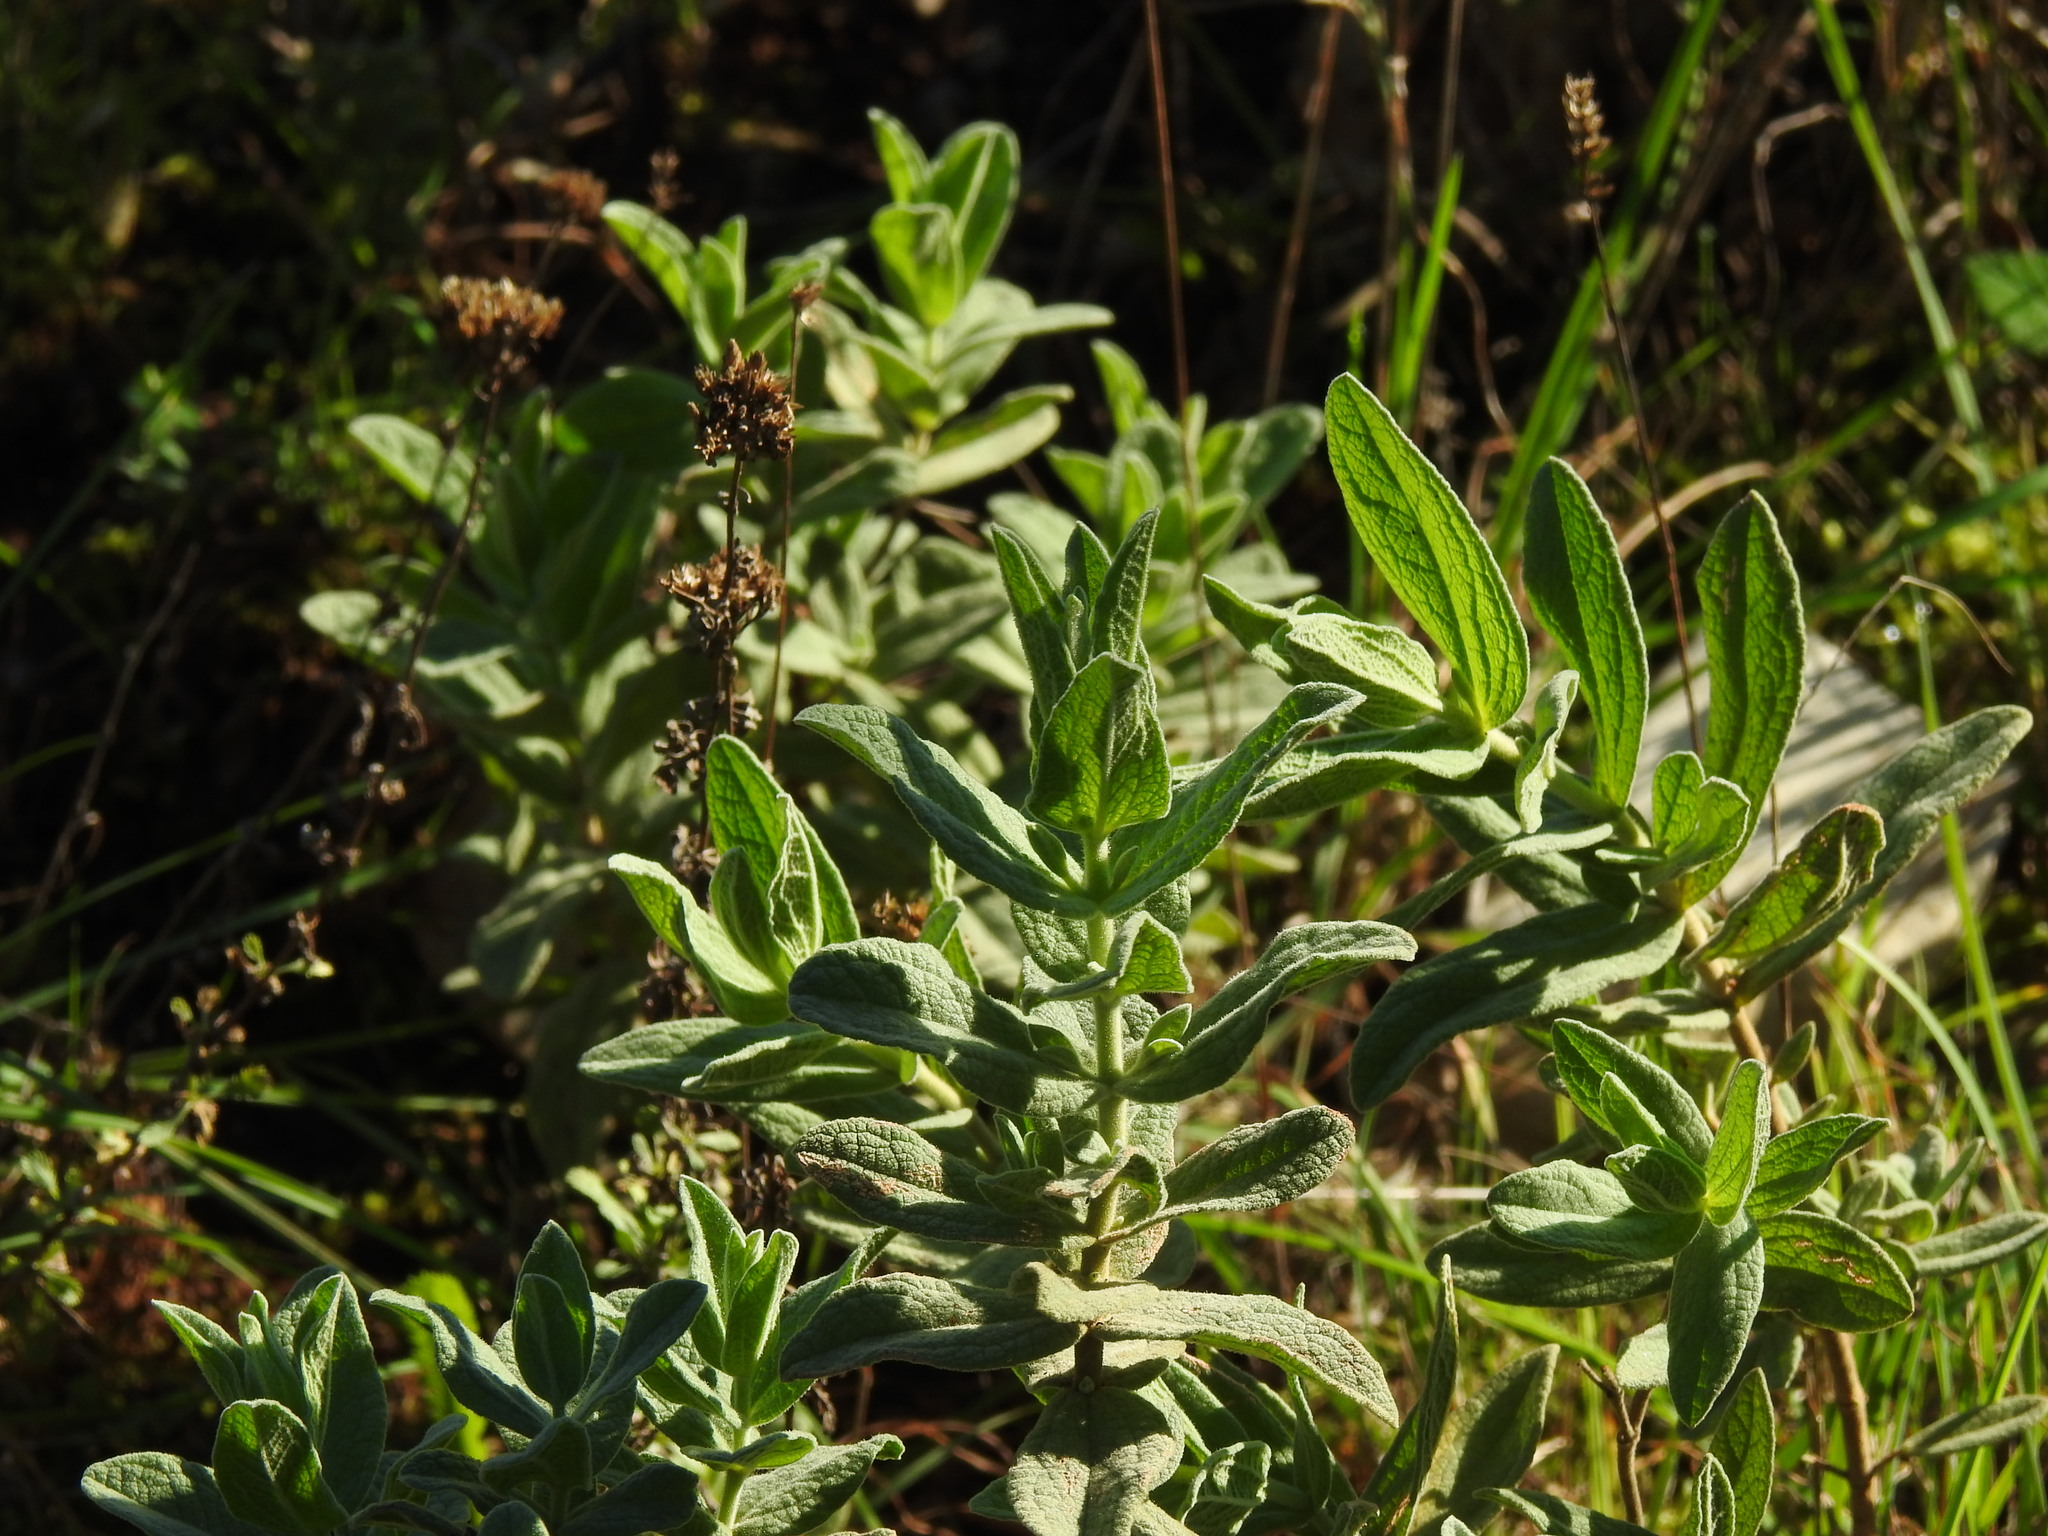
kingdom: Plantae
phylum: Tracheophyta
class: Magnoliopsida
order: Malvales
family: Cistaceae
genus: Cistus
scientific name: Cistus albidus
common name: White-leaf rock-rose
